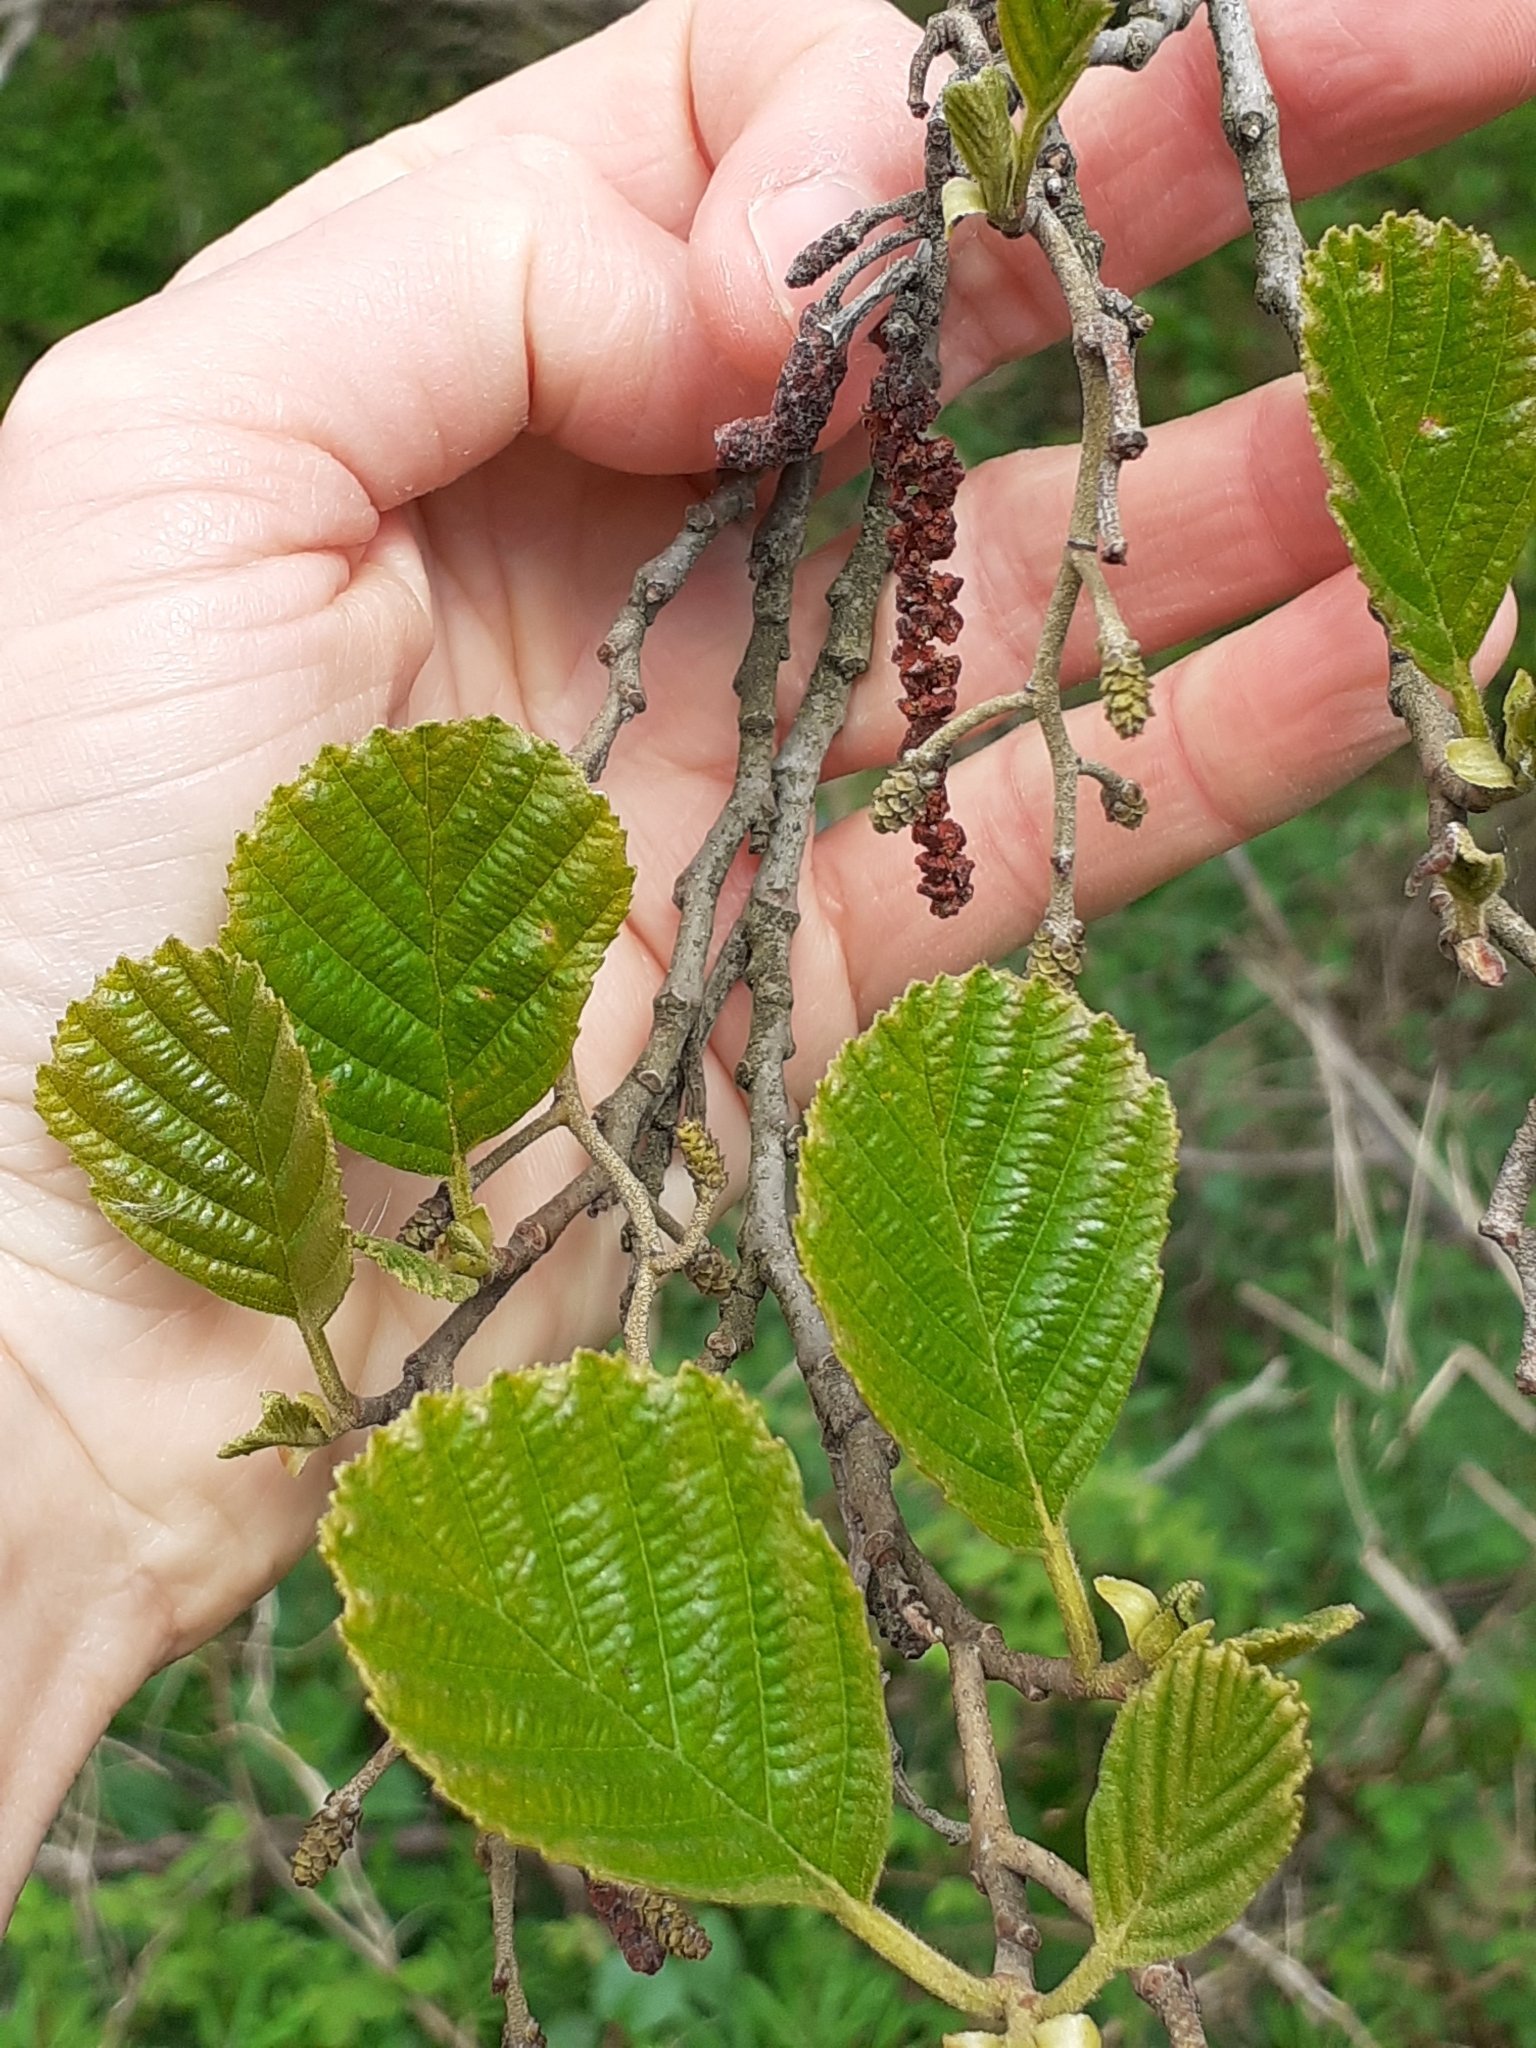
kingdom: Plantae
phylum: Tracheophyta
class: Magnoliopsida
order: Fagales
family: Betulaceae
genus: Alnus
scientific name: Alnus glutinosa
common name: Black alder
